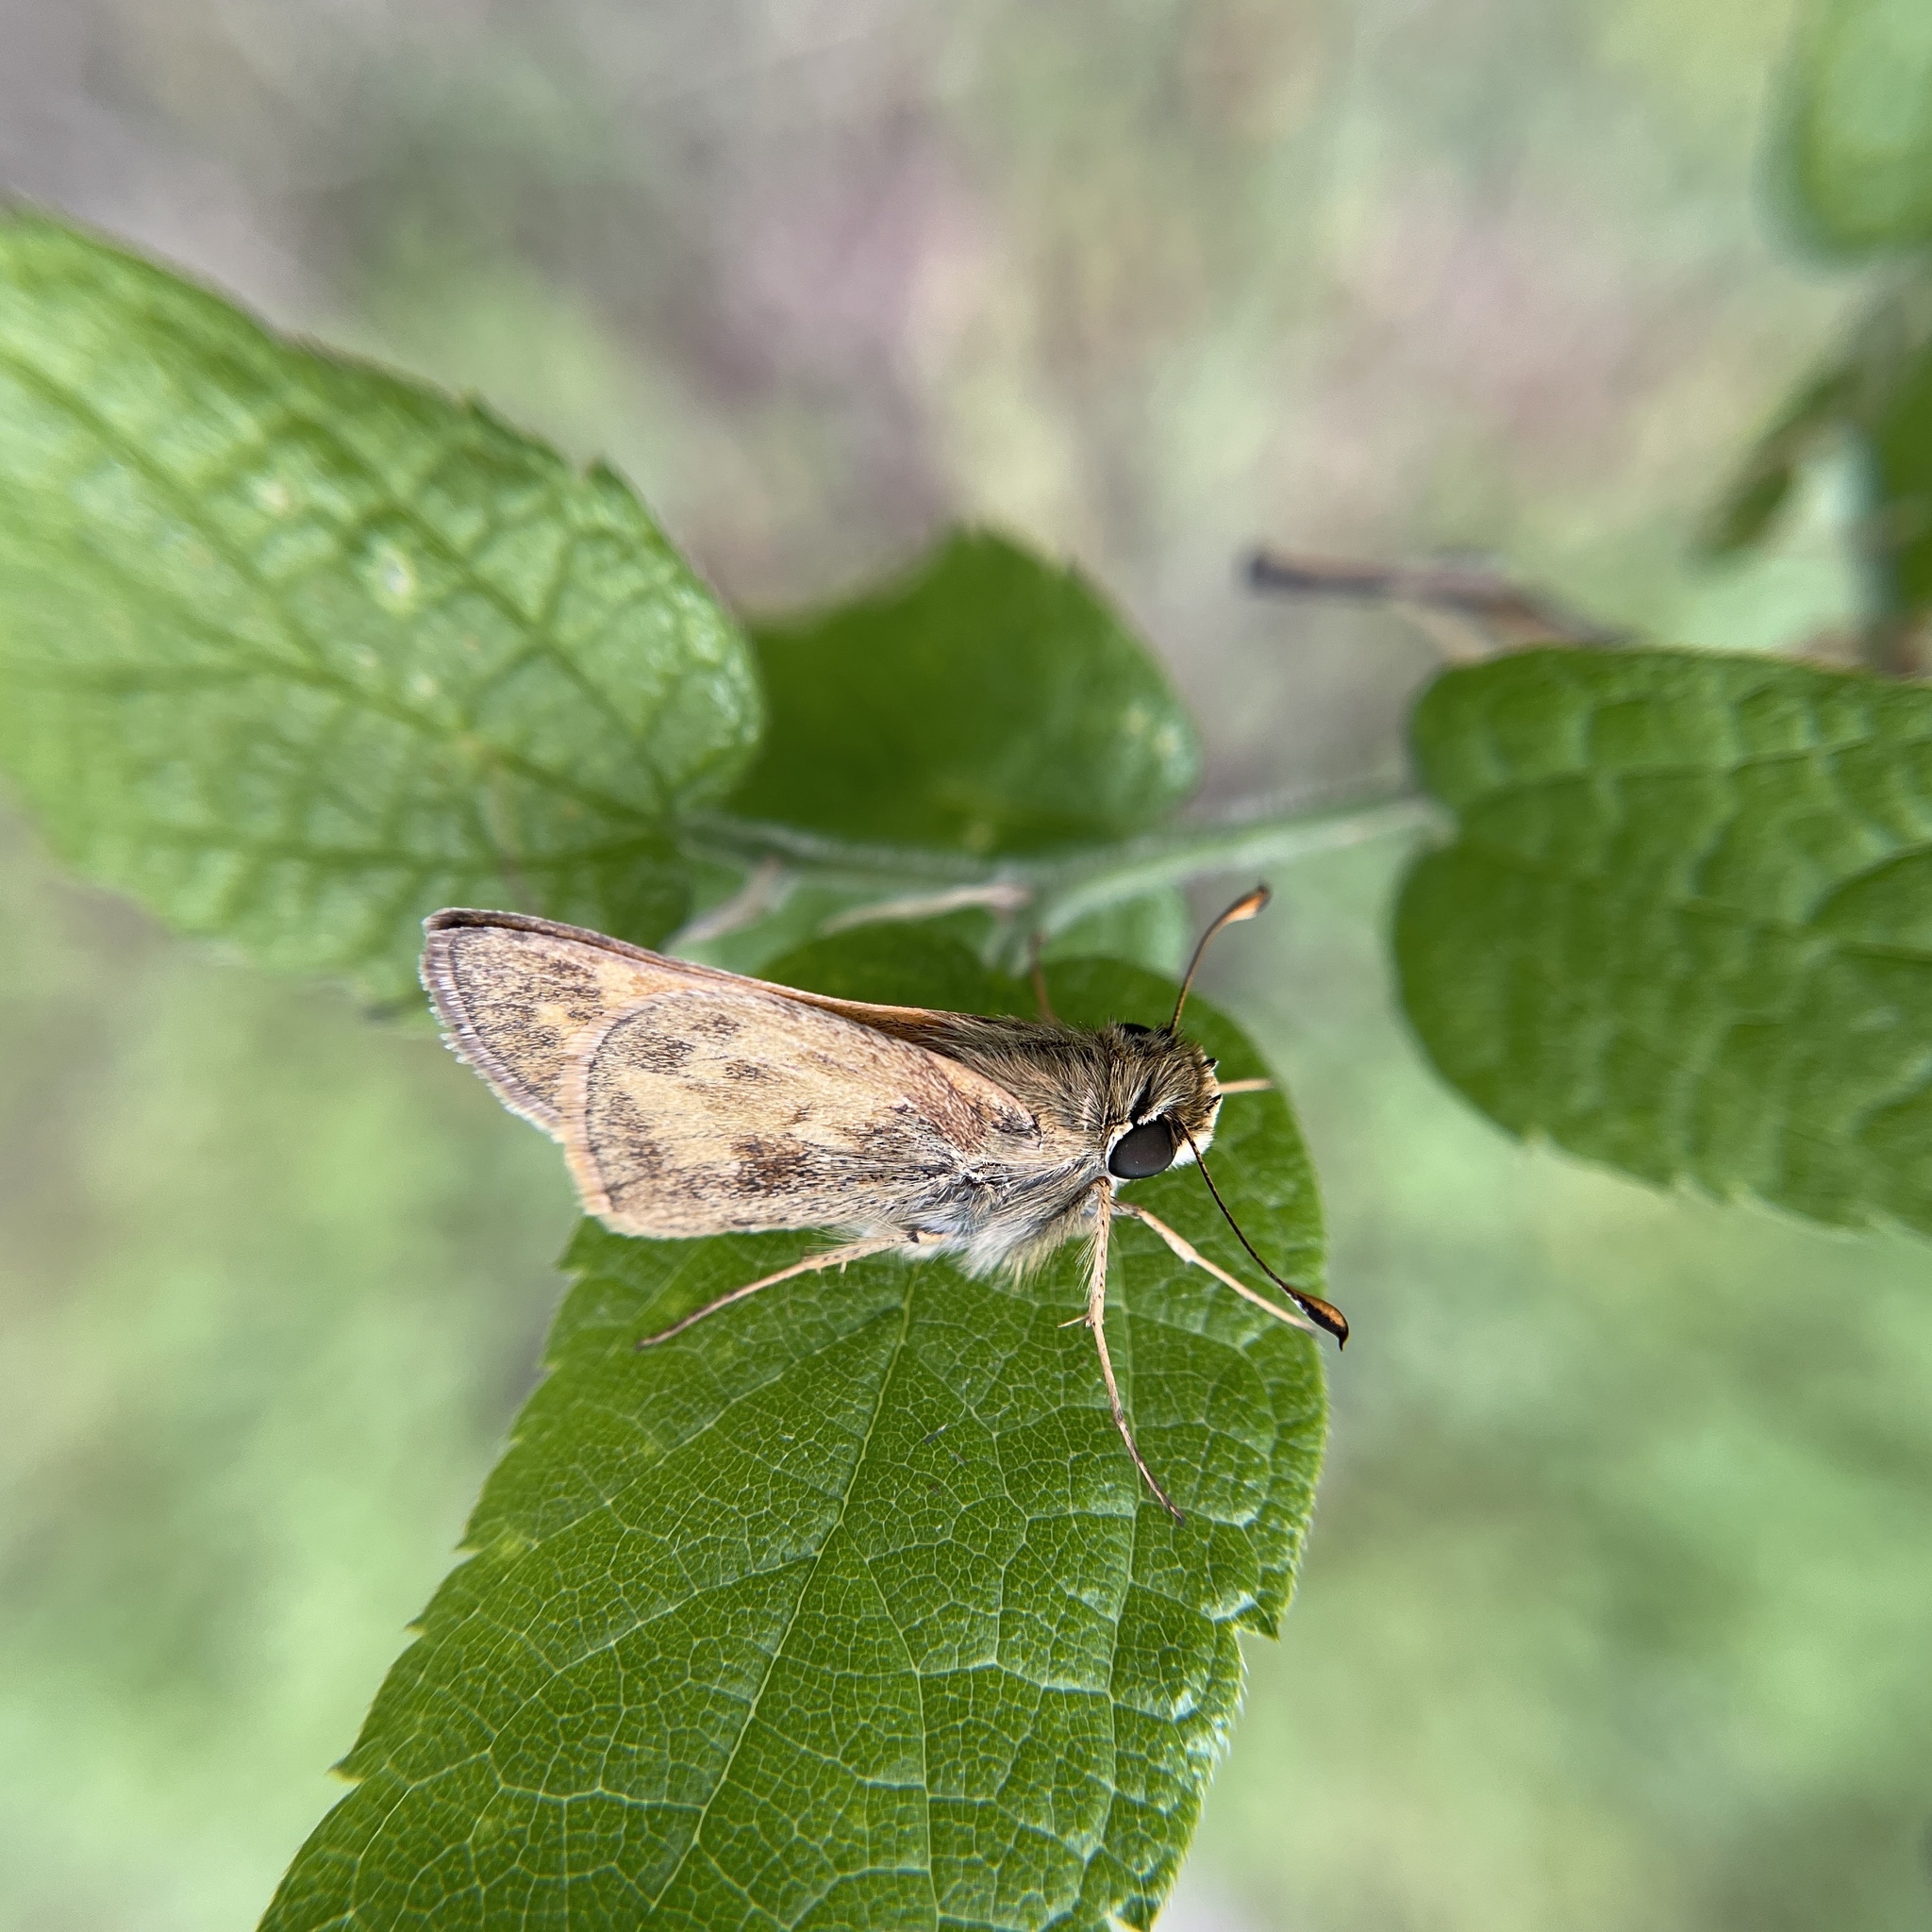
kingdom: Animalia
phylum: Arthropoda
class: Insecta
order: Lepidoptera
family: Hesperiidae
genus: Atalopedes
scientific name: Atalopedes
